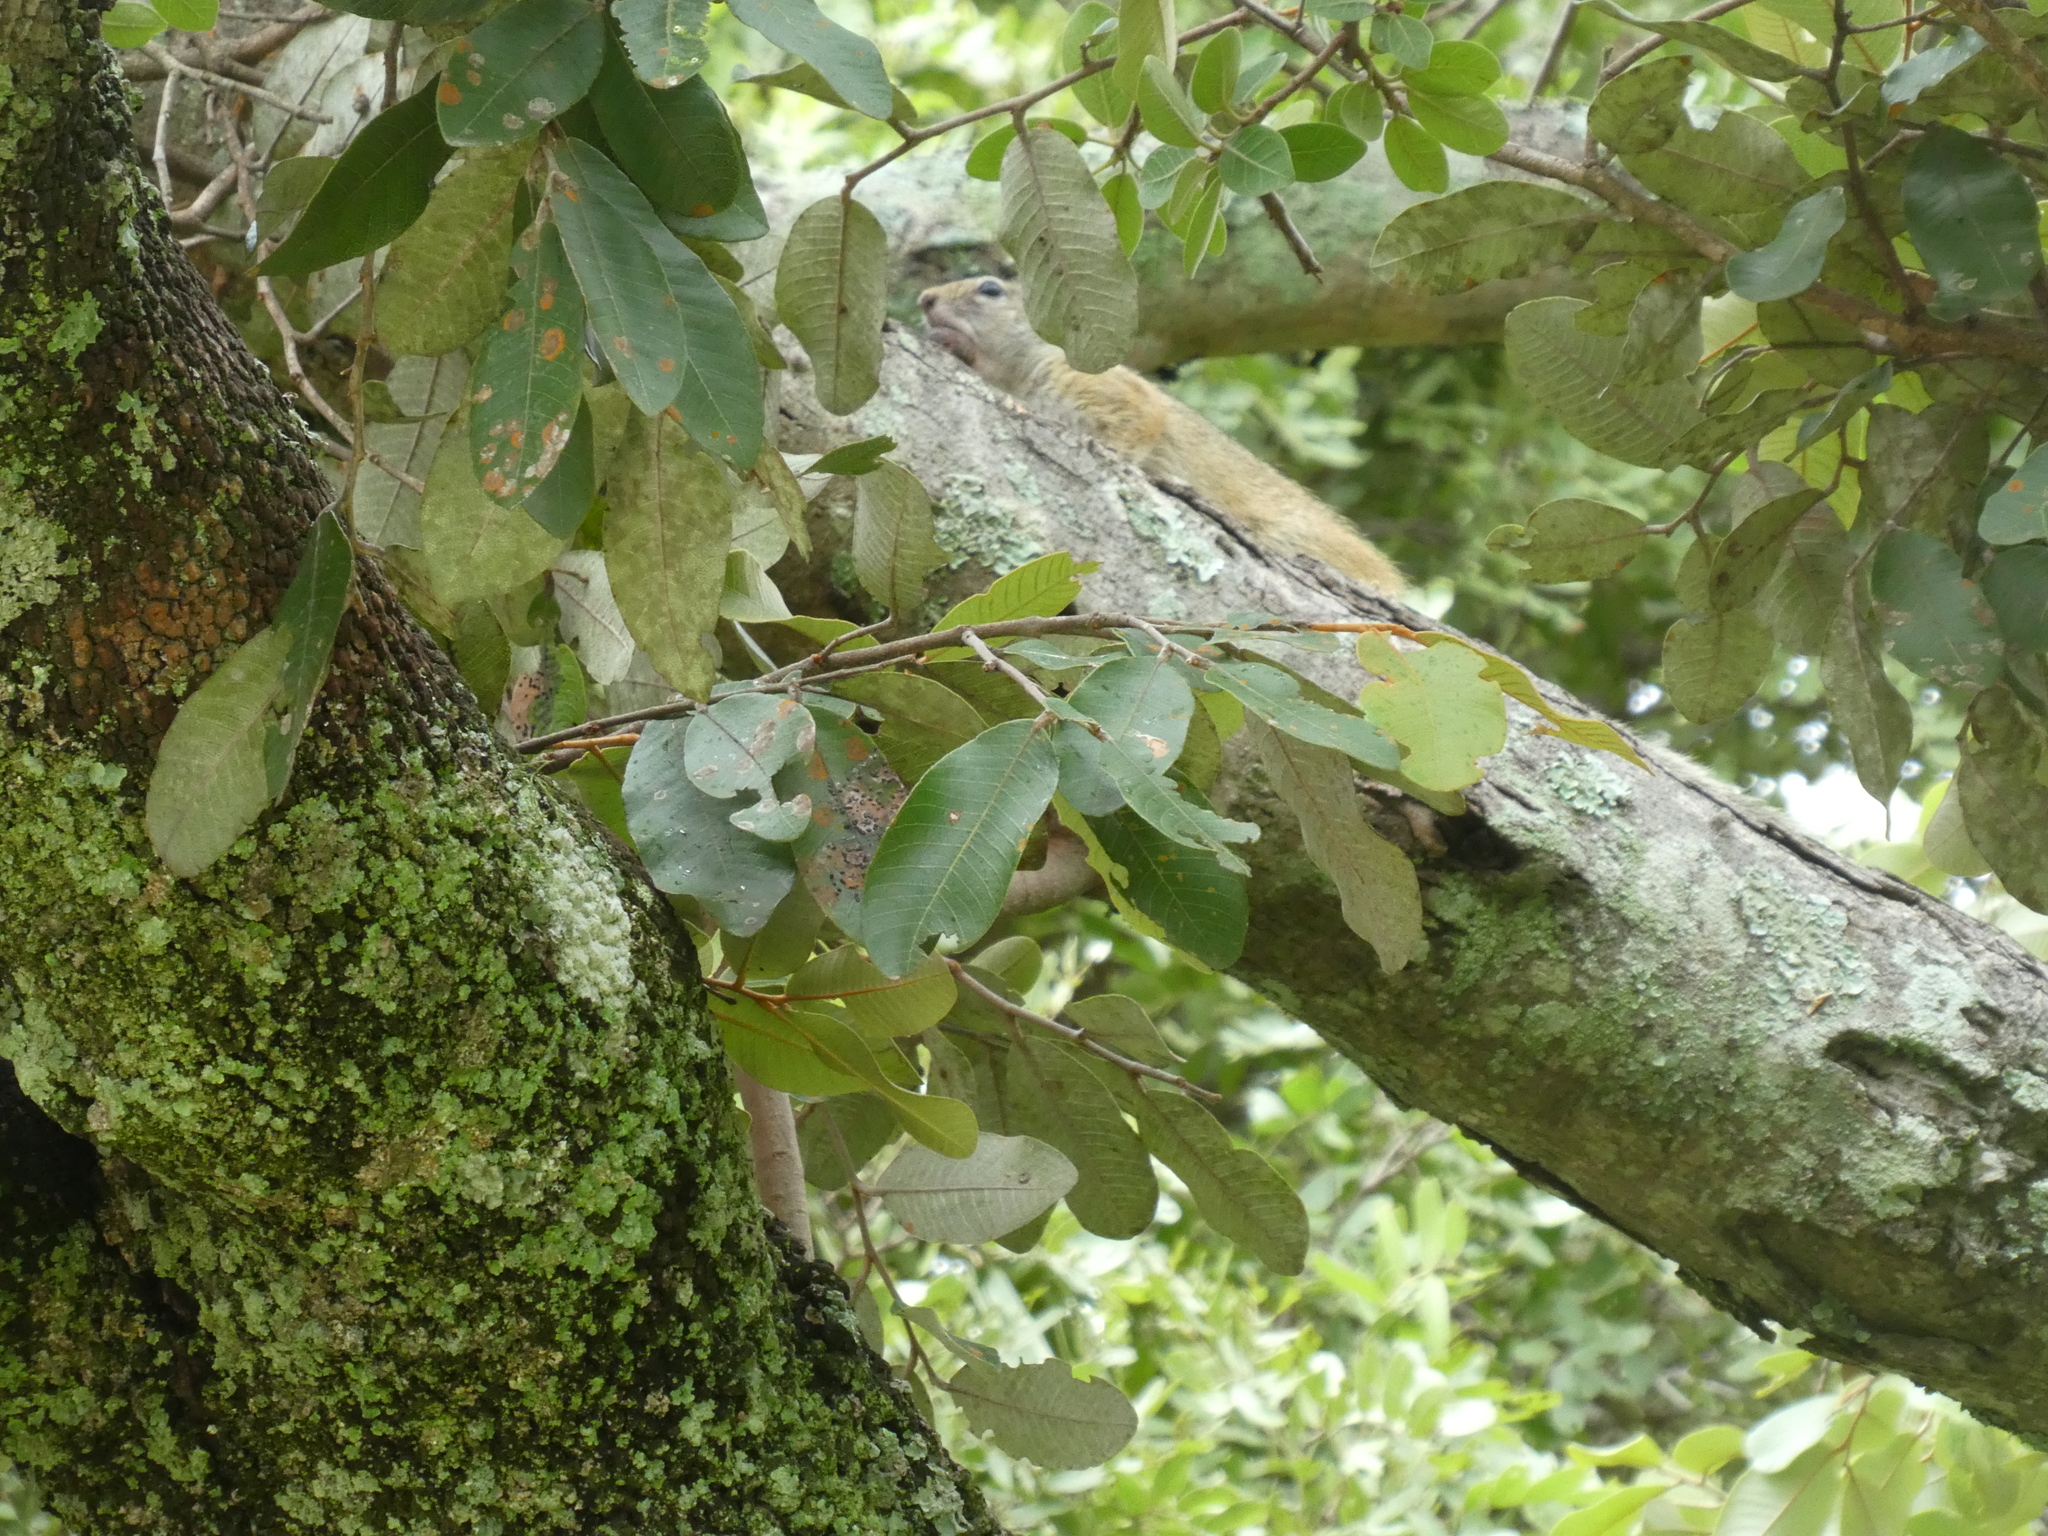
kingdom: Animalia
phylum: Chordata
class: Mammalia
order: Rodentia
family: Sciuridae
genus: Paraxerus
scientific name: Paraxerus cepapi
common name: Smith's bush squirrel
